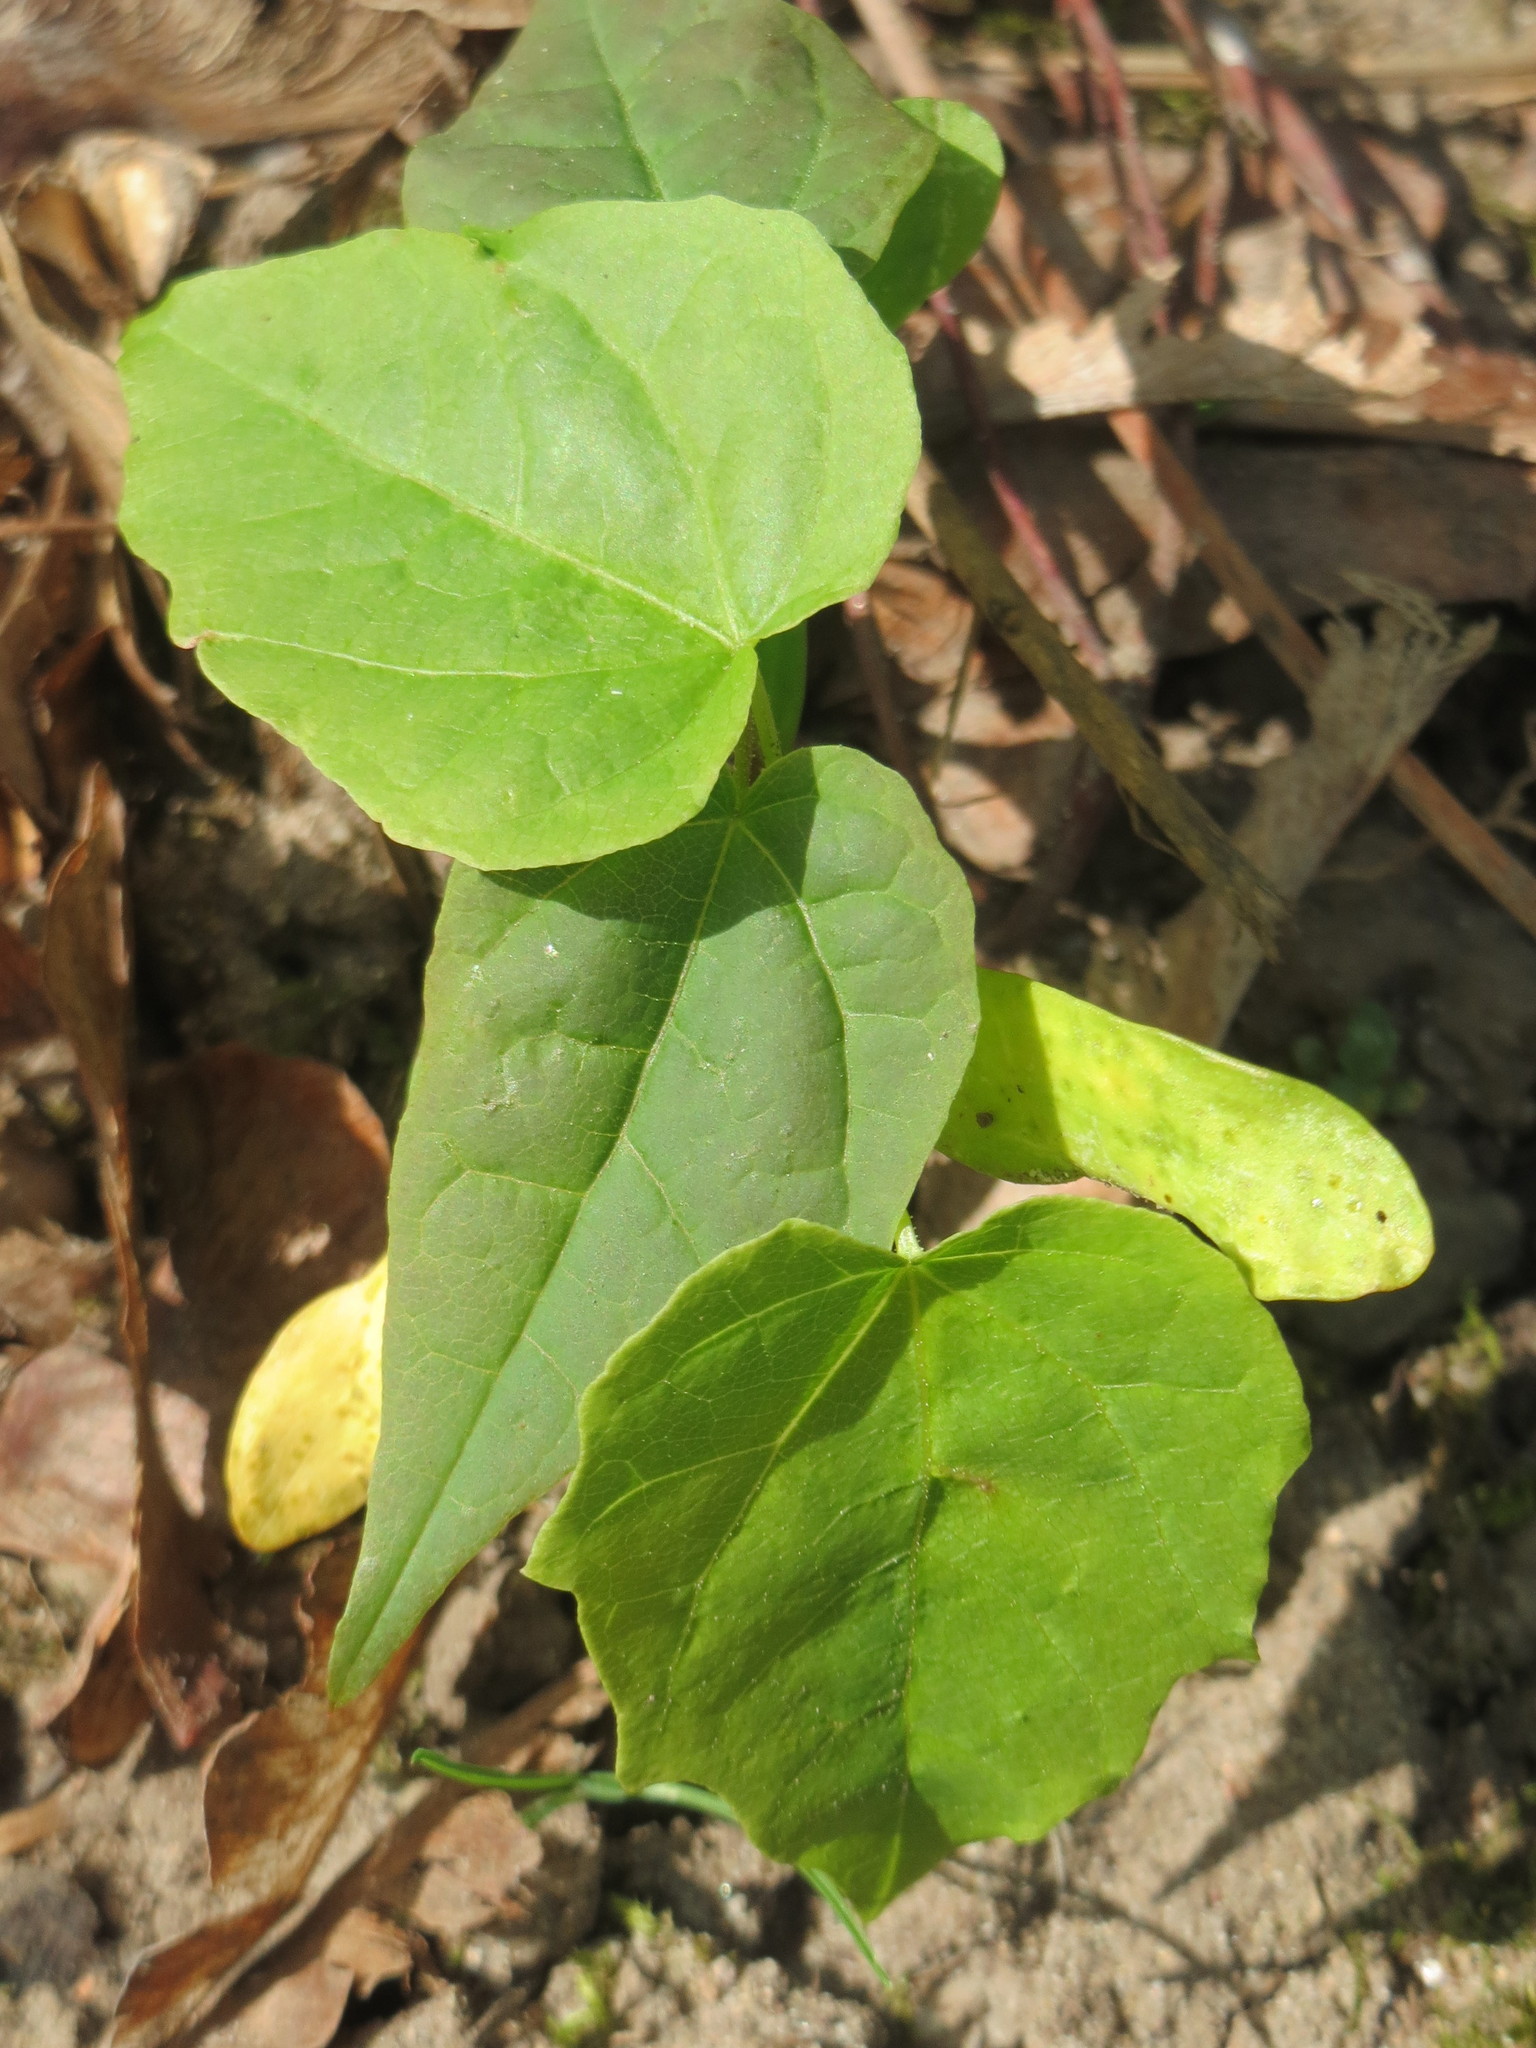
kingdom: Plantae
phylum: Tracheophyta
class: Magnoliopsida
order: Sapindales
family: Sapindaceae
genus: Acer
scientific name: Acer platanoides
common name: Norway maple
